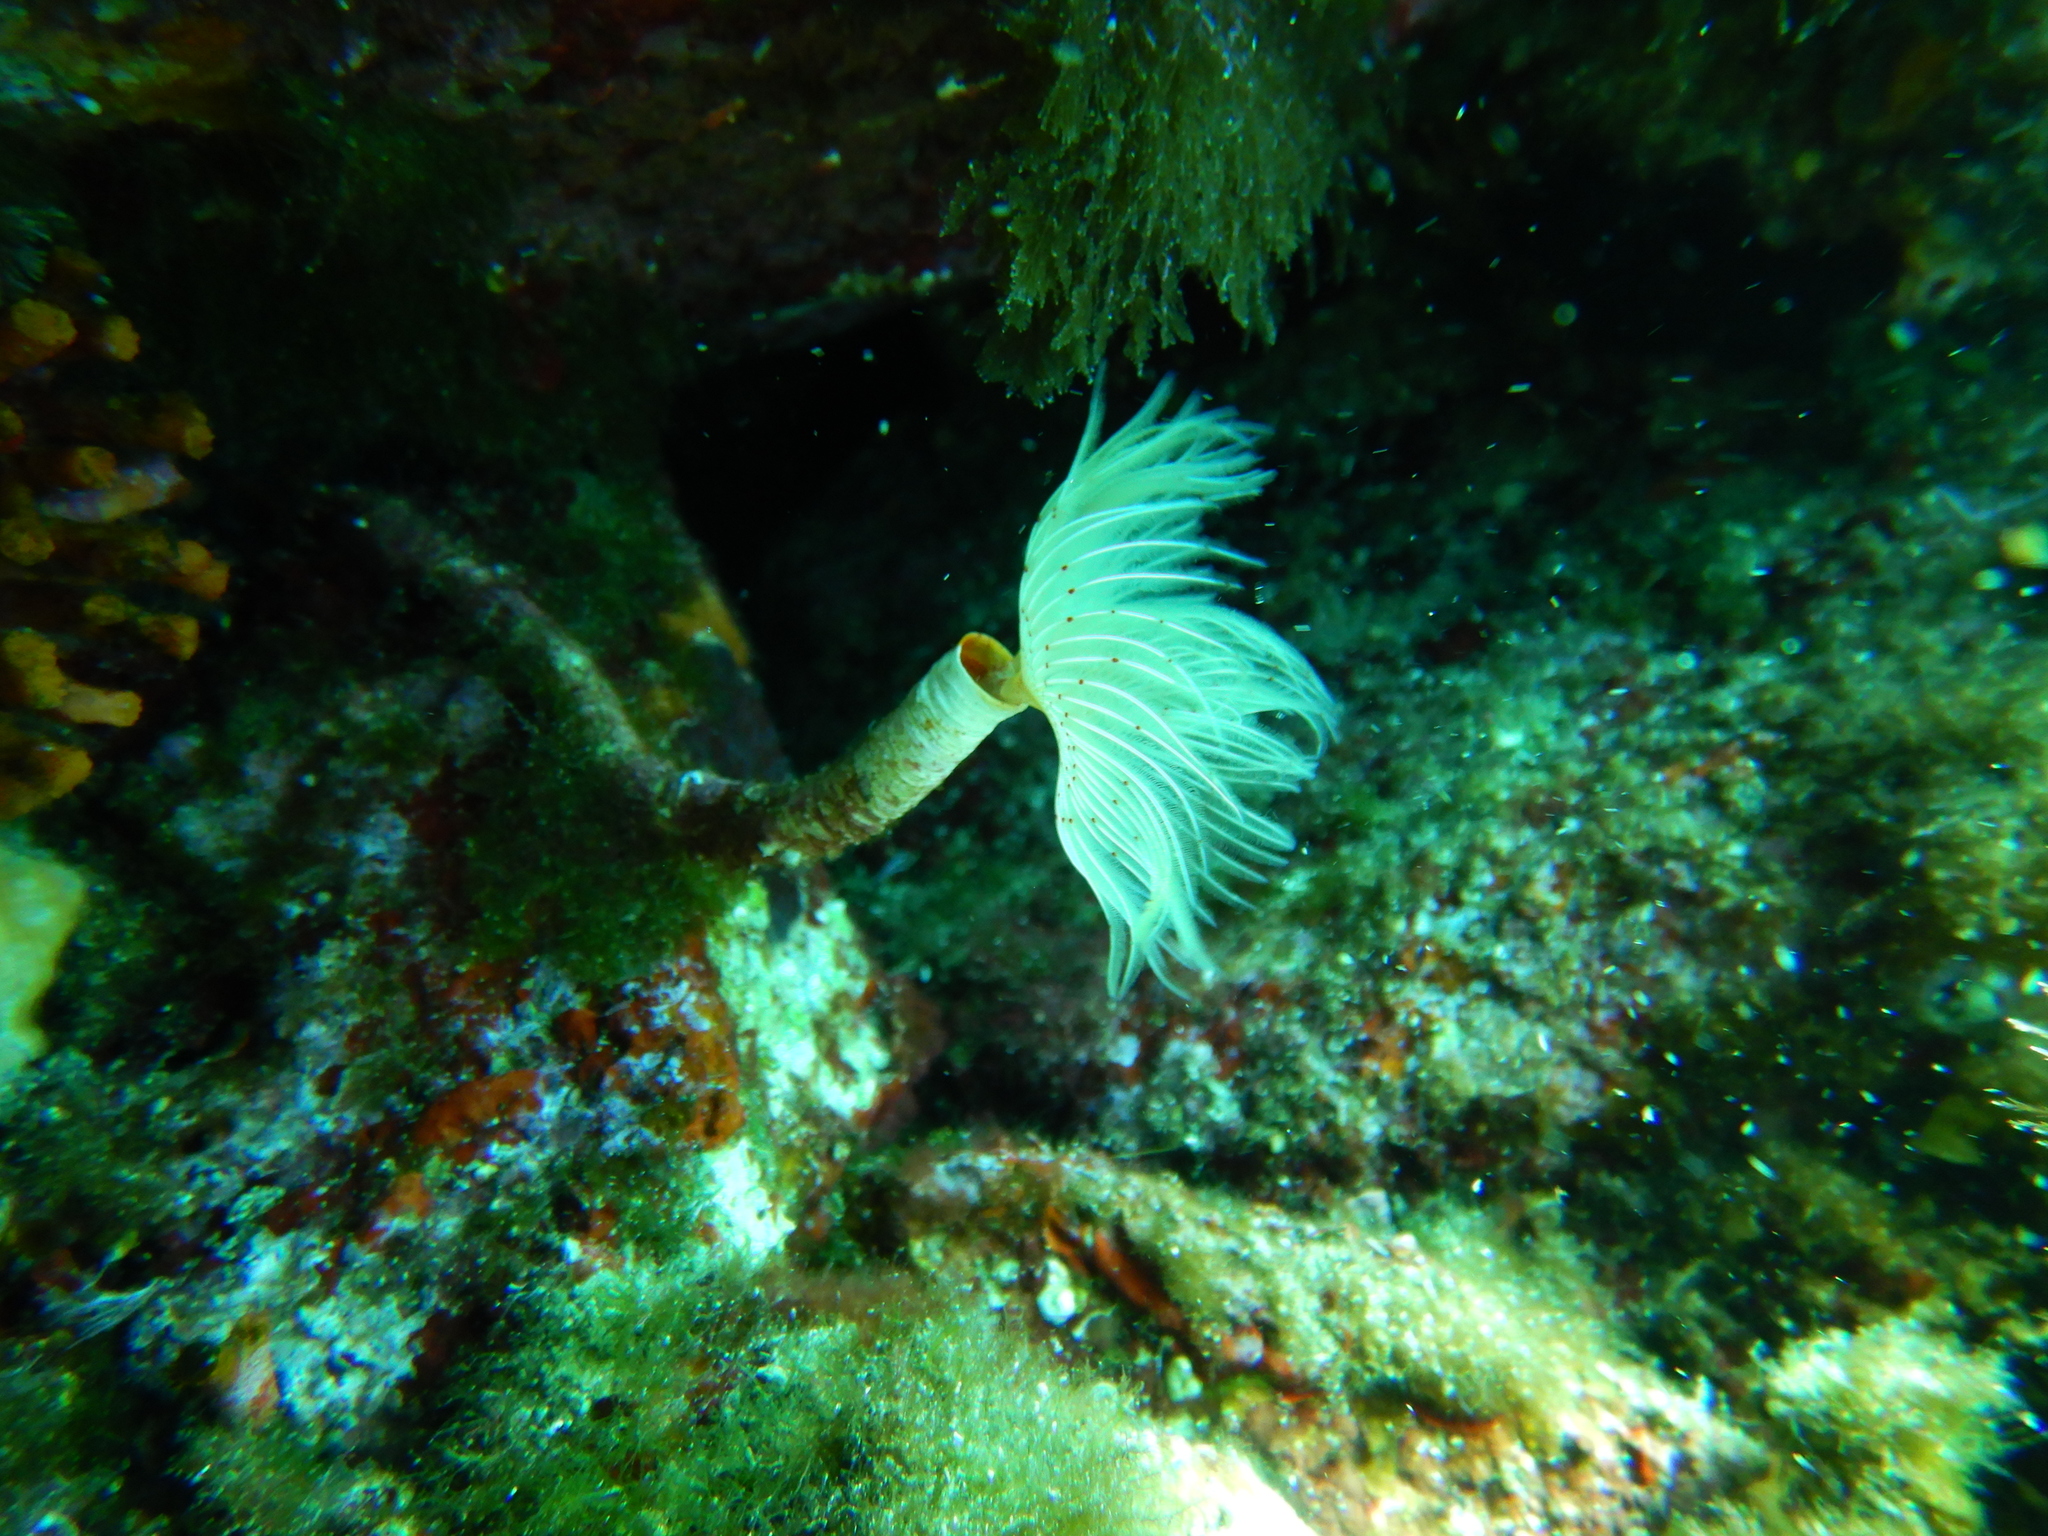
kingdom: Animalia
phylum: Annelida
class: Polychaeta
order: Sabellida
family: Serpulidae
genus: Protula
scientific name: Protula tubularia
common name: Red-spotted horseshoe
